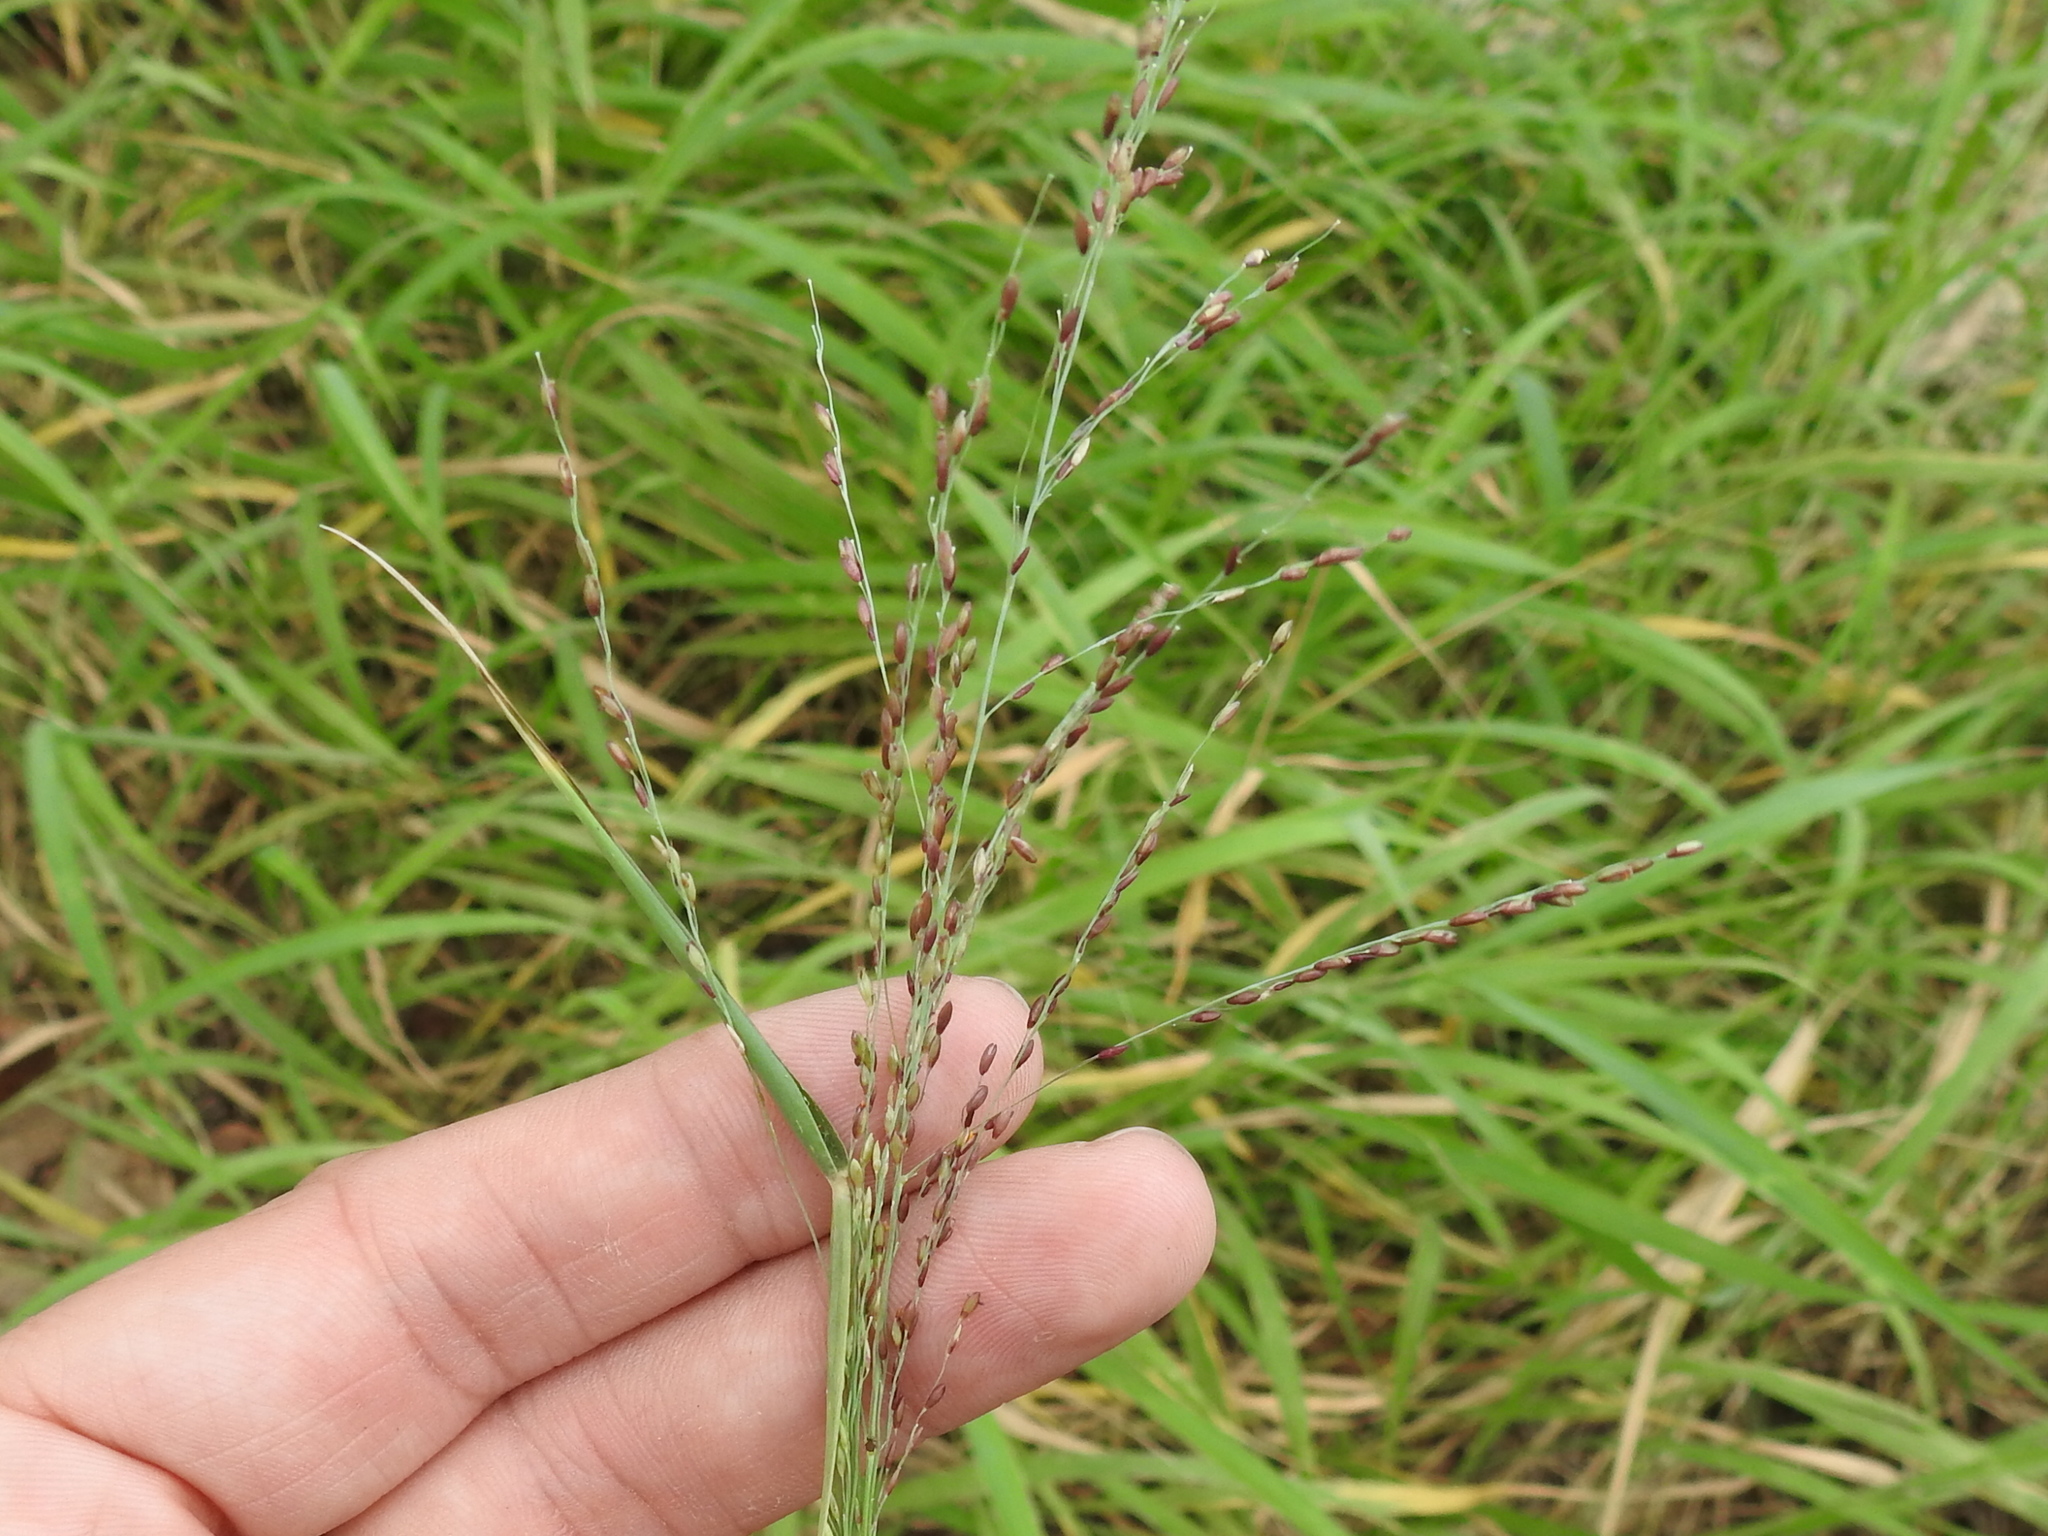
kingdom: Plantae
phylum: Tracheophyta
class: Liliopsida
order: Poales
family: Poaceae
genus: Megathyrsus
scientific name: Megathyrsus maximus
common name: Guineagrass
